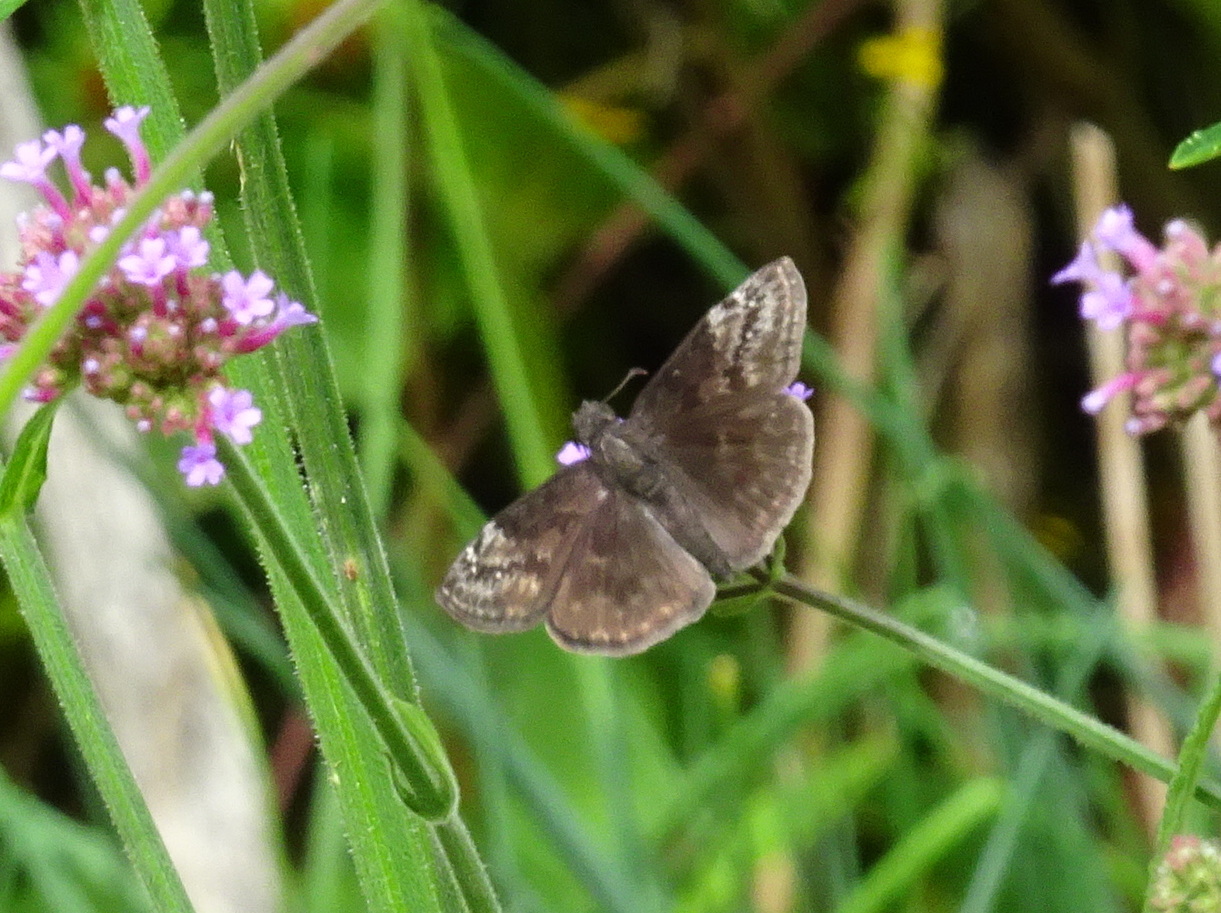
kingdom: Animalia
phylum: Arthropoda
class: Insecta
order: Lepidoptera
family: Hesperiidae
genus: Erynnis
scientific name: Erynnis baptisiae
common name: Wild indigo duskywing
